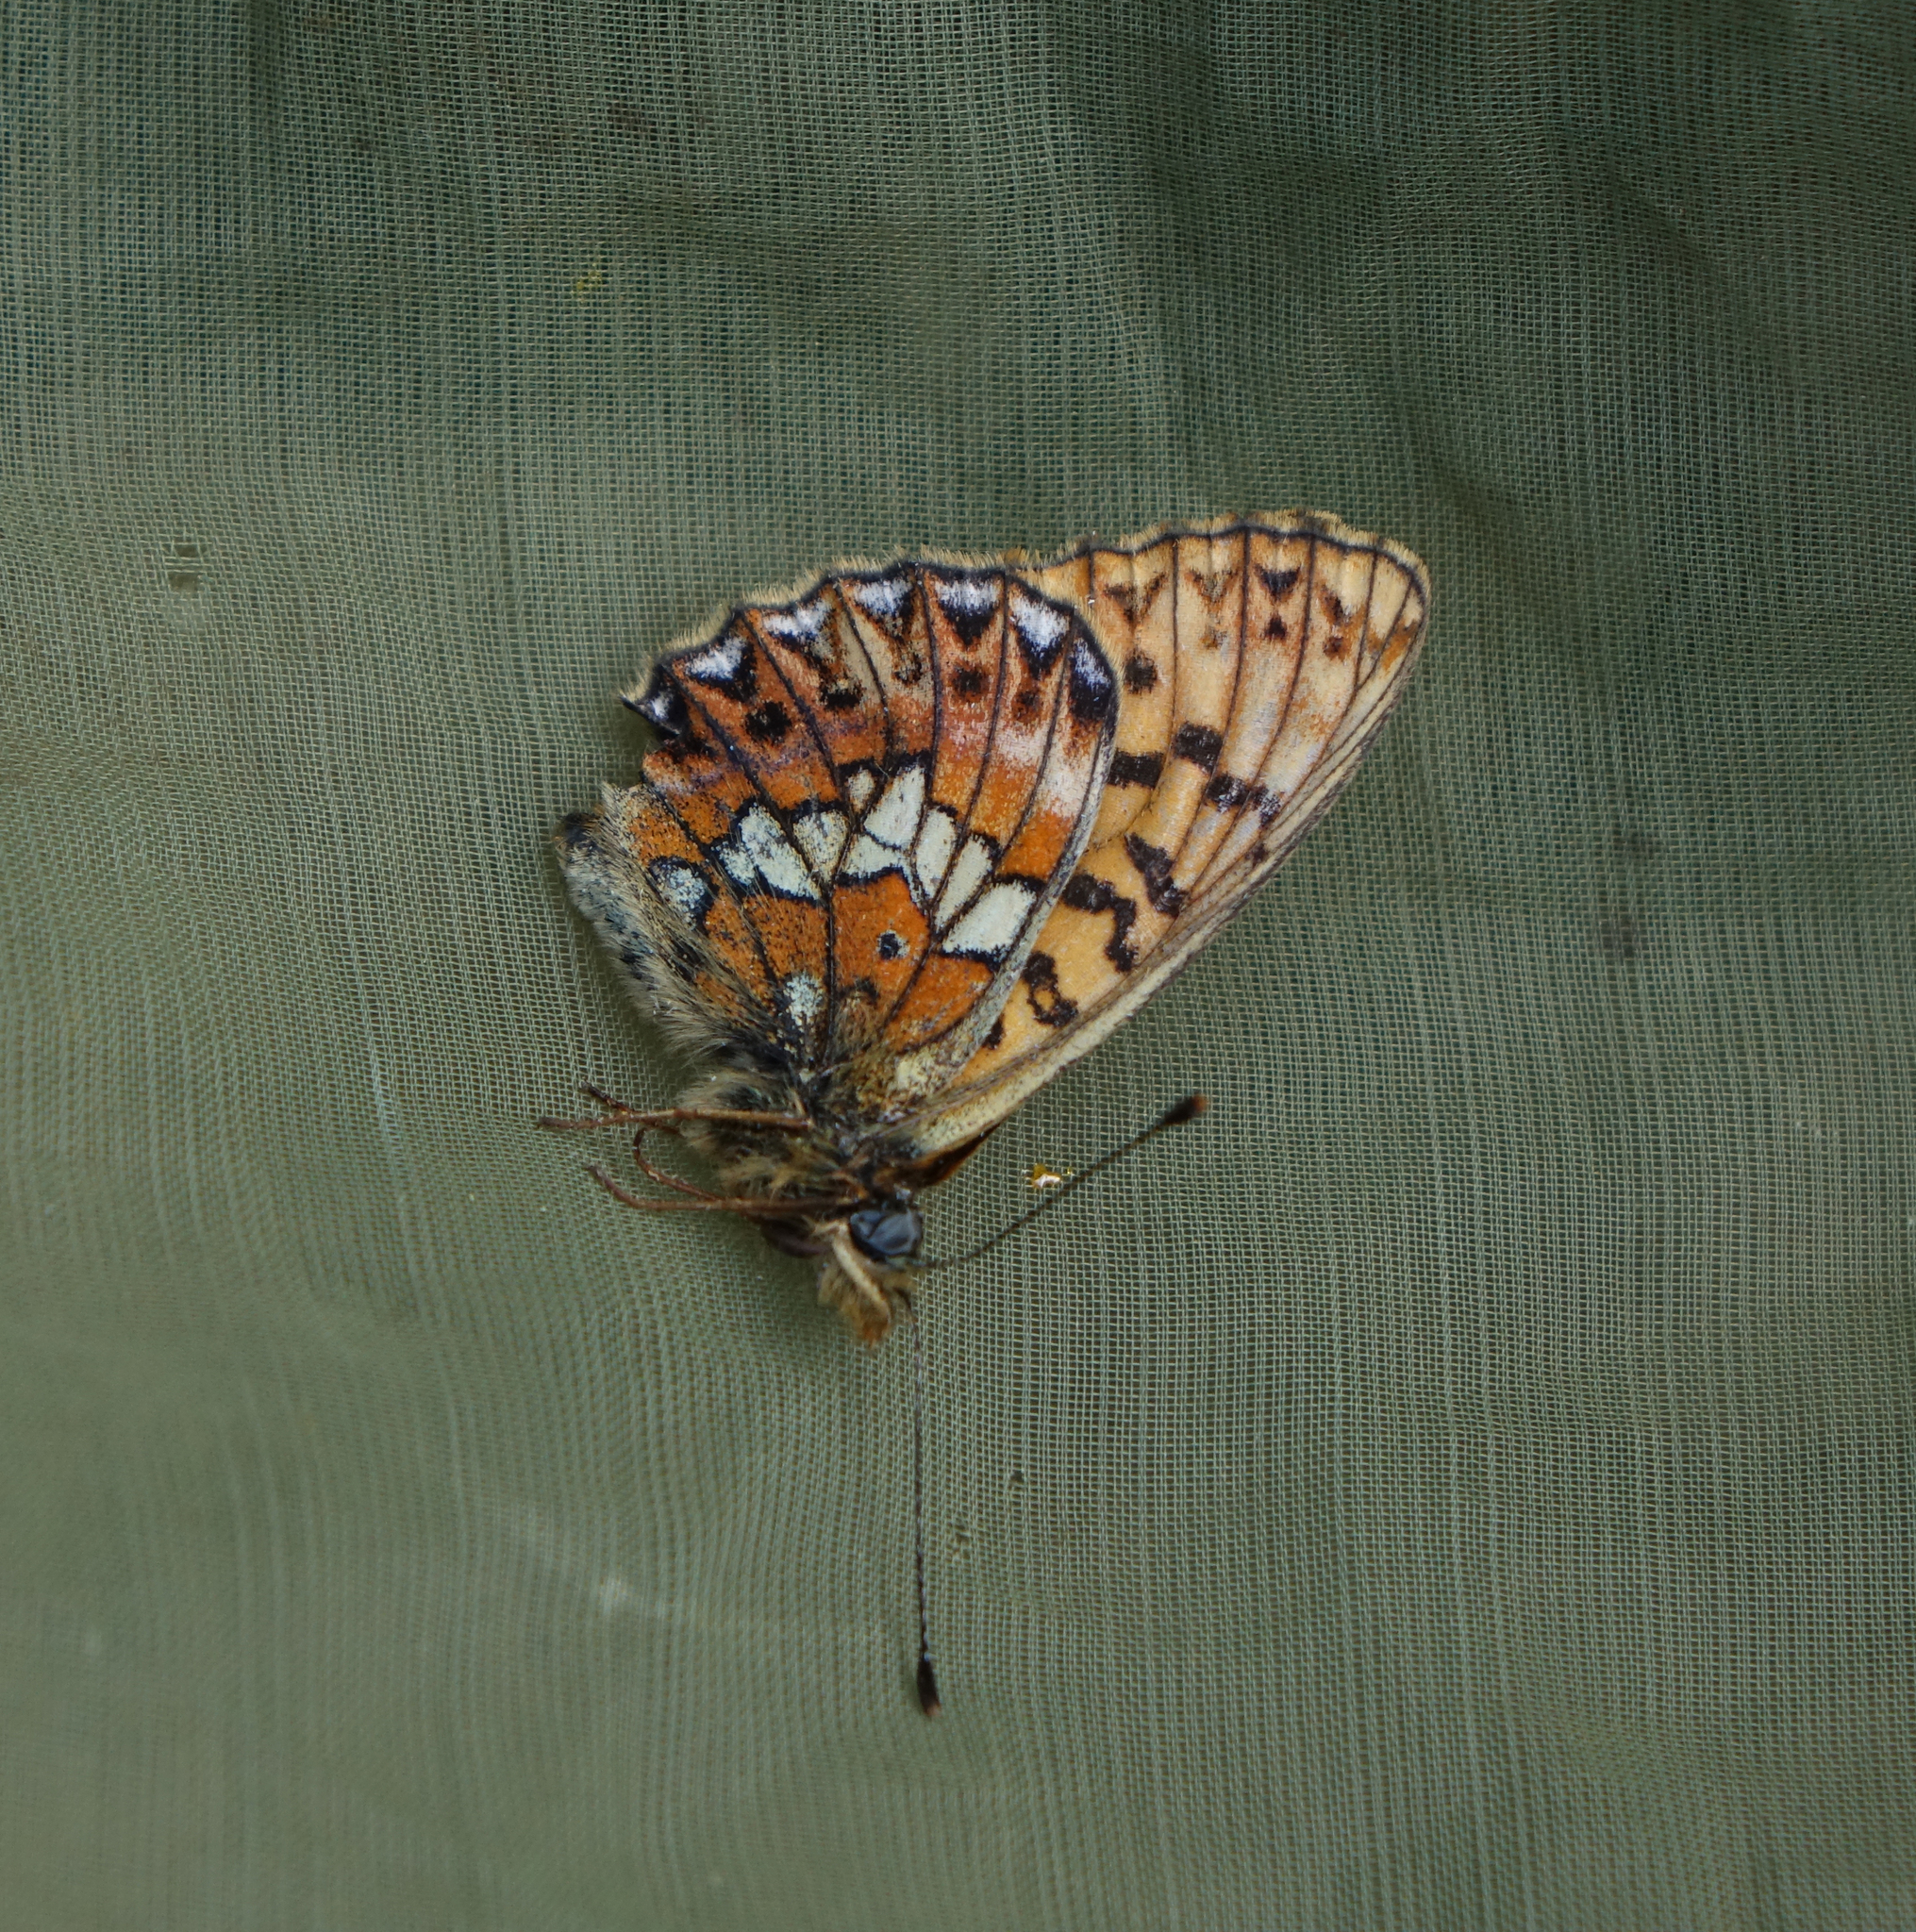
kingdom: Animalia
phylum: Arthropoda
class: Insecta
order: Lepidoptera
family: Nymphalidae
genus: Clossiana
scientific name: Clossiana oscarus
